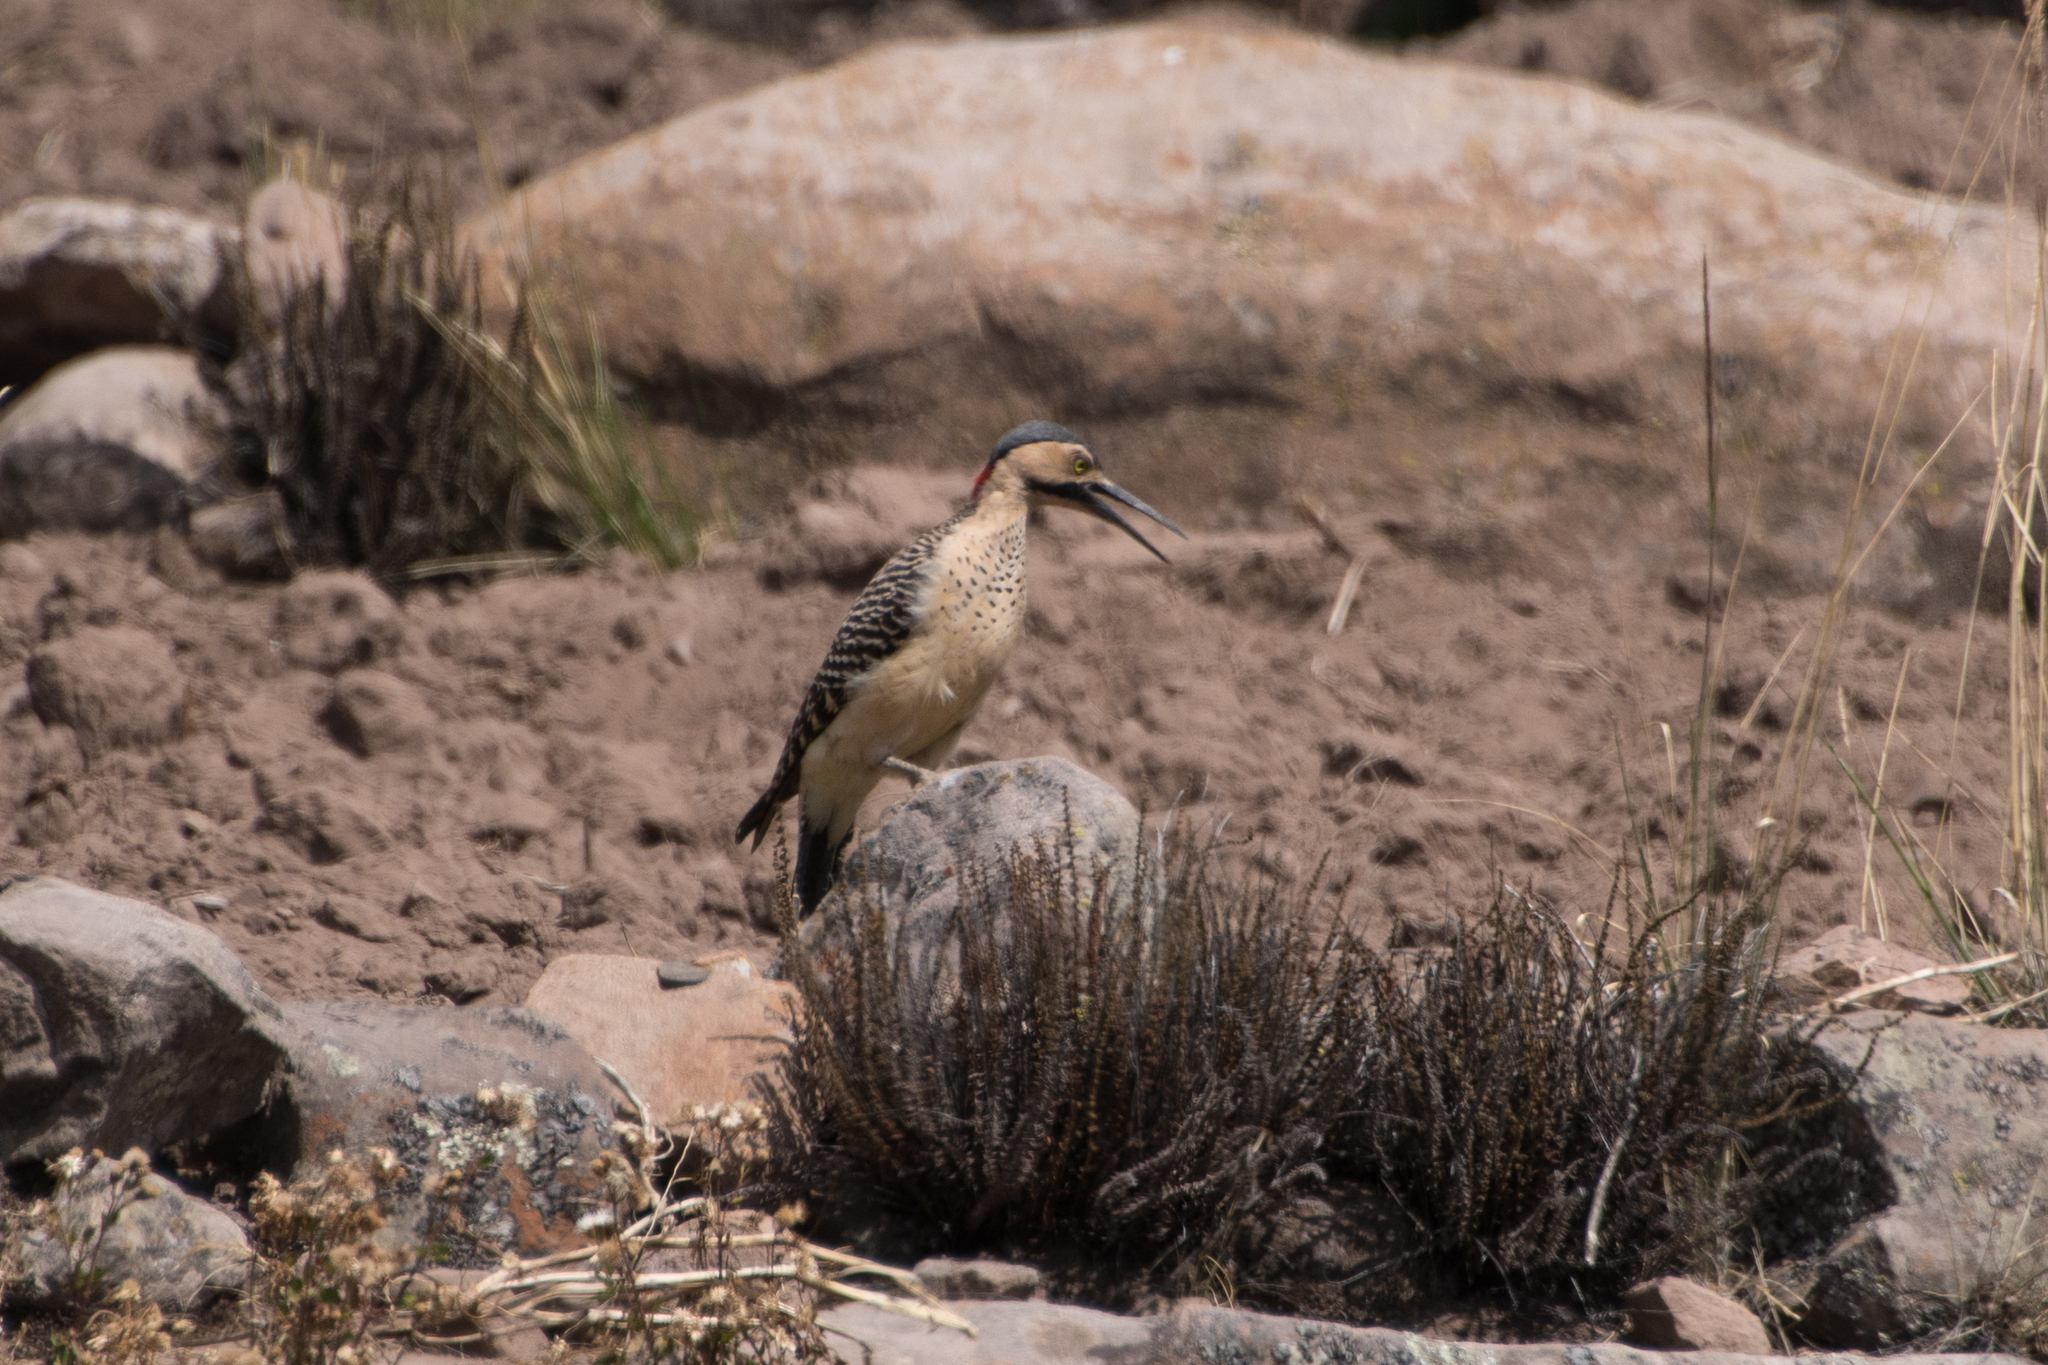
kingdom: Animalia
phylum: Chordata
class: Aves
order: Piciformes
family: Picidae
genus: Colaptes
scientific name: Colaptes rupicola
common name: Andean flicker
